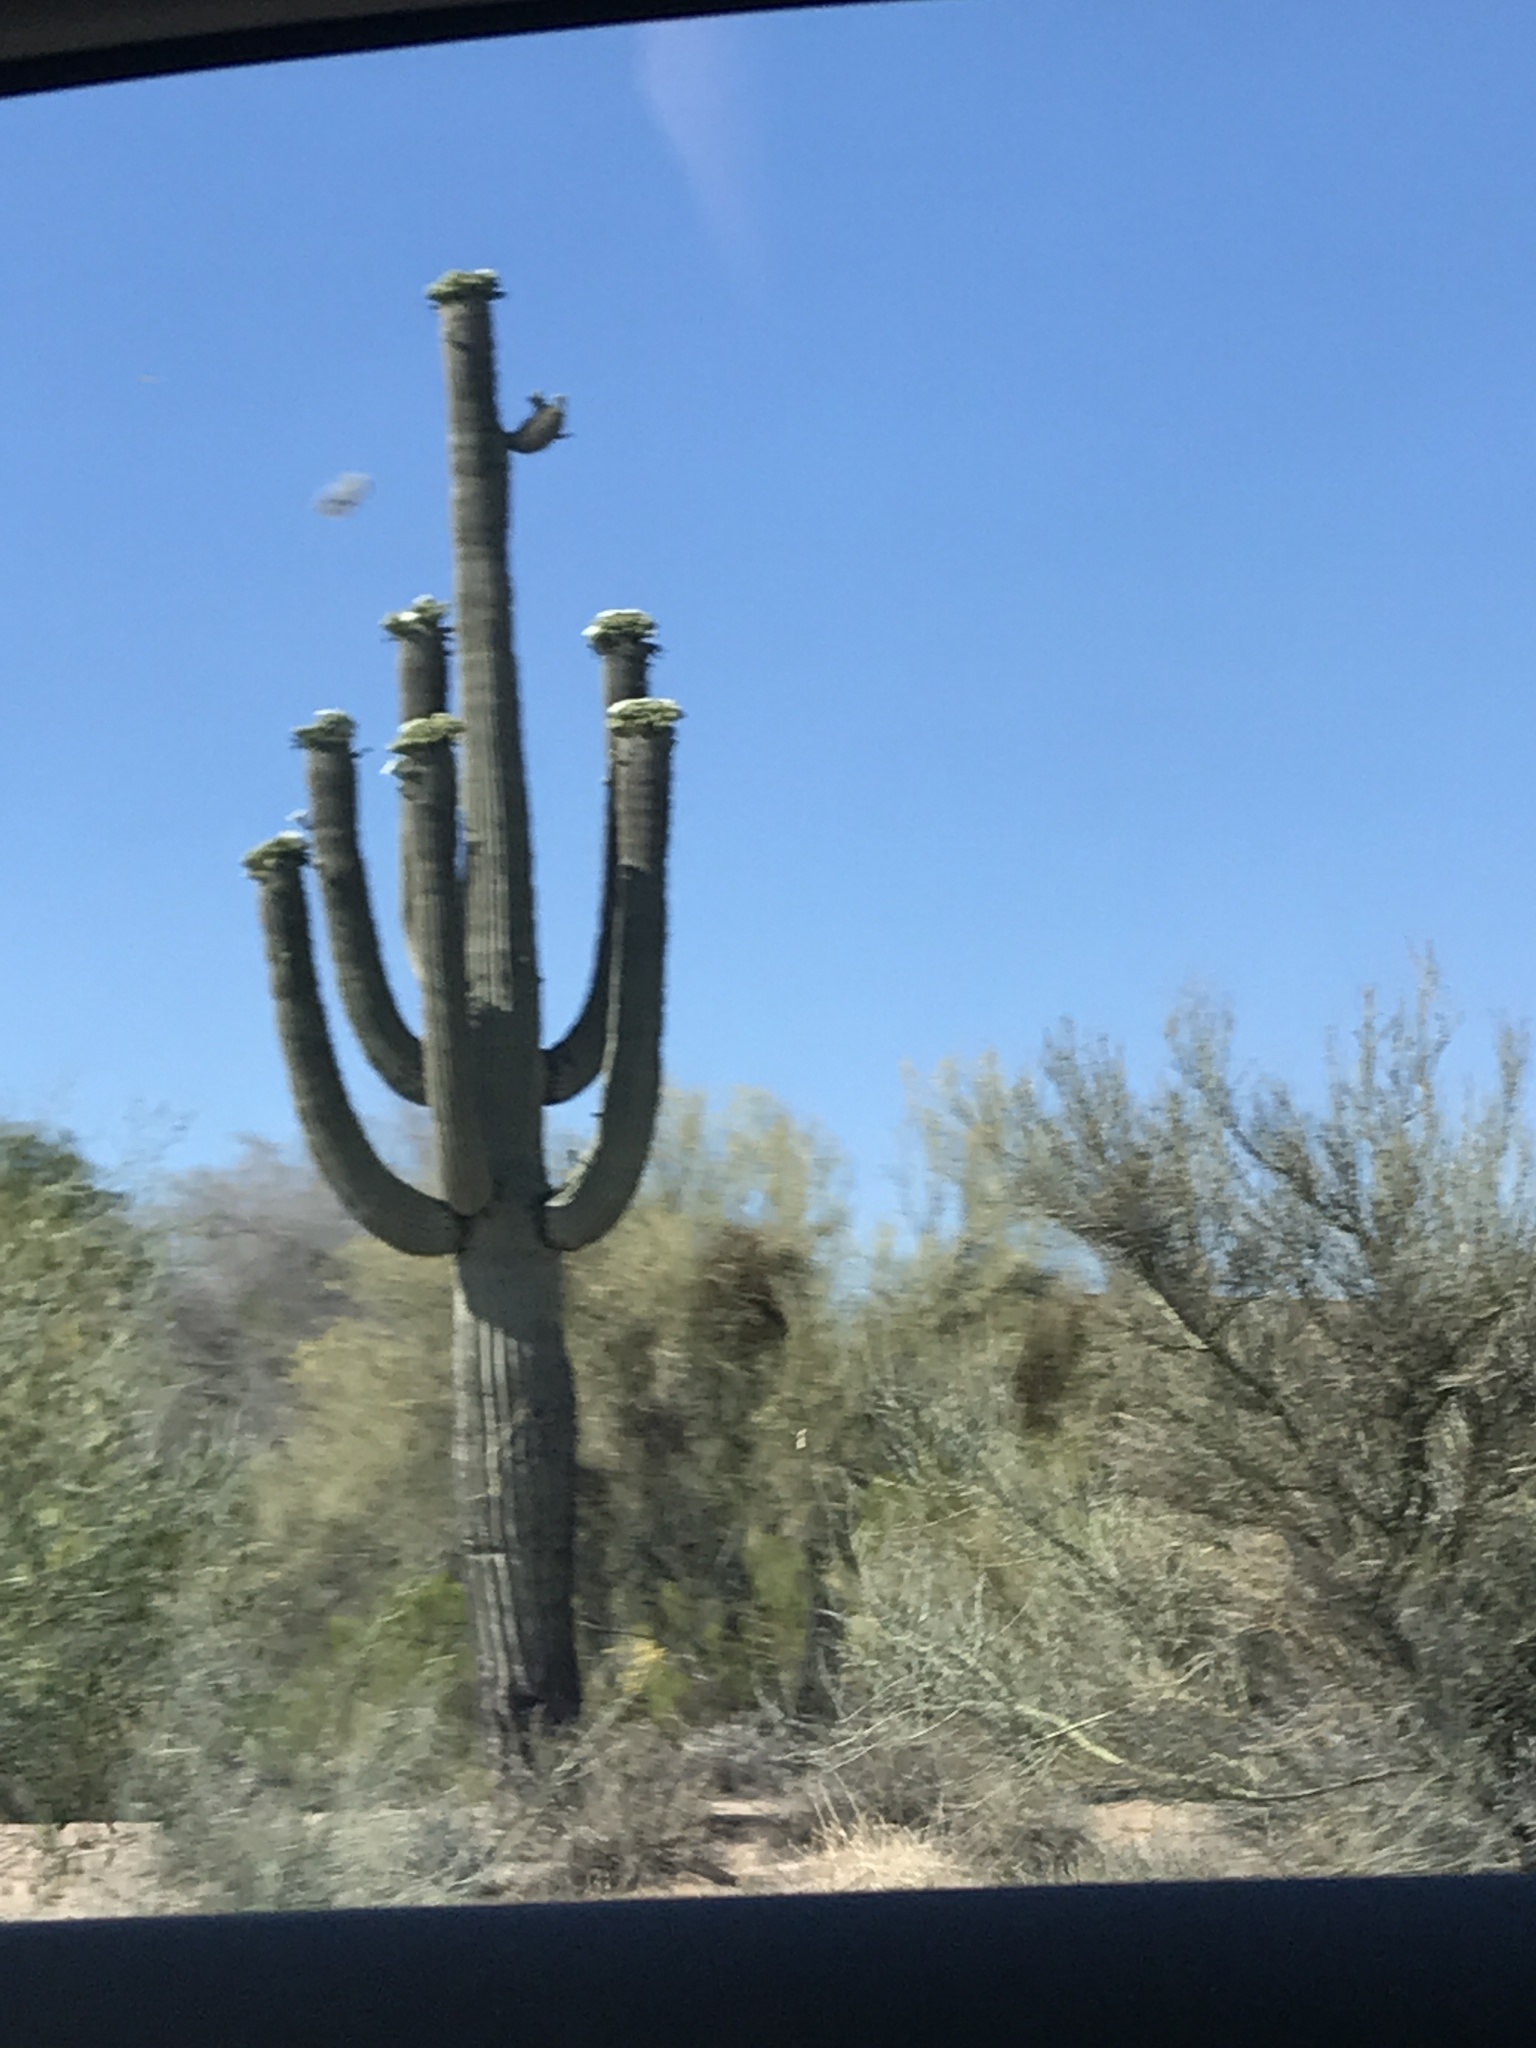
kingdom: Plantae
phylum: Tracheophyta
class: Magnoliopsida
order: Caryophyllales
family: Cactaceae
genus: Carnegiea
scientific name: Carnegiea gigantea
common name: Saguaro
